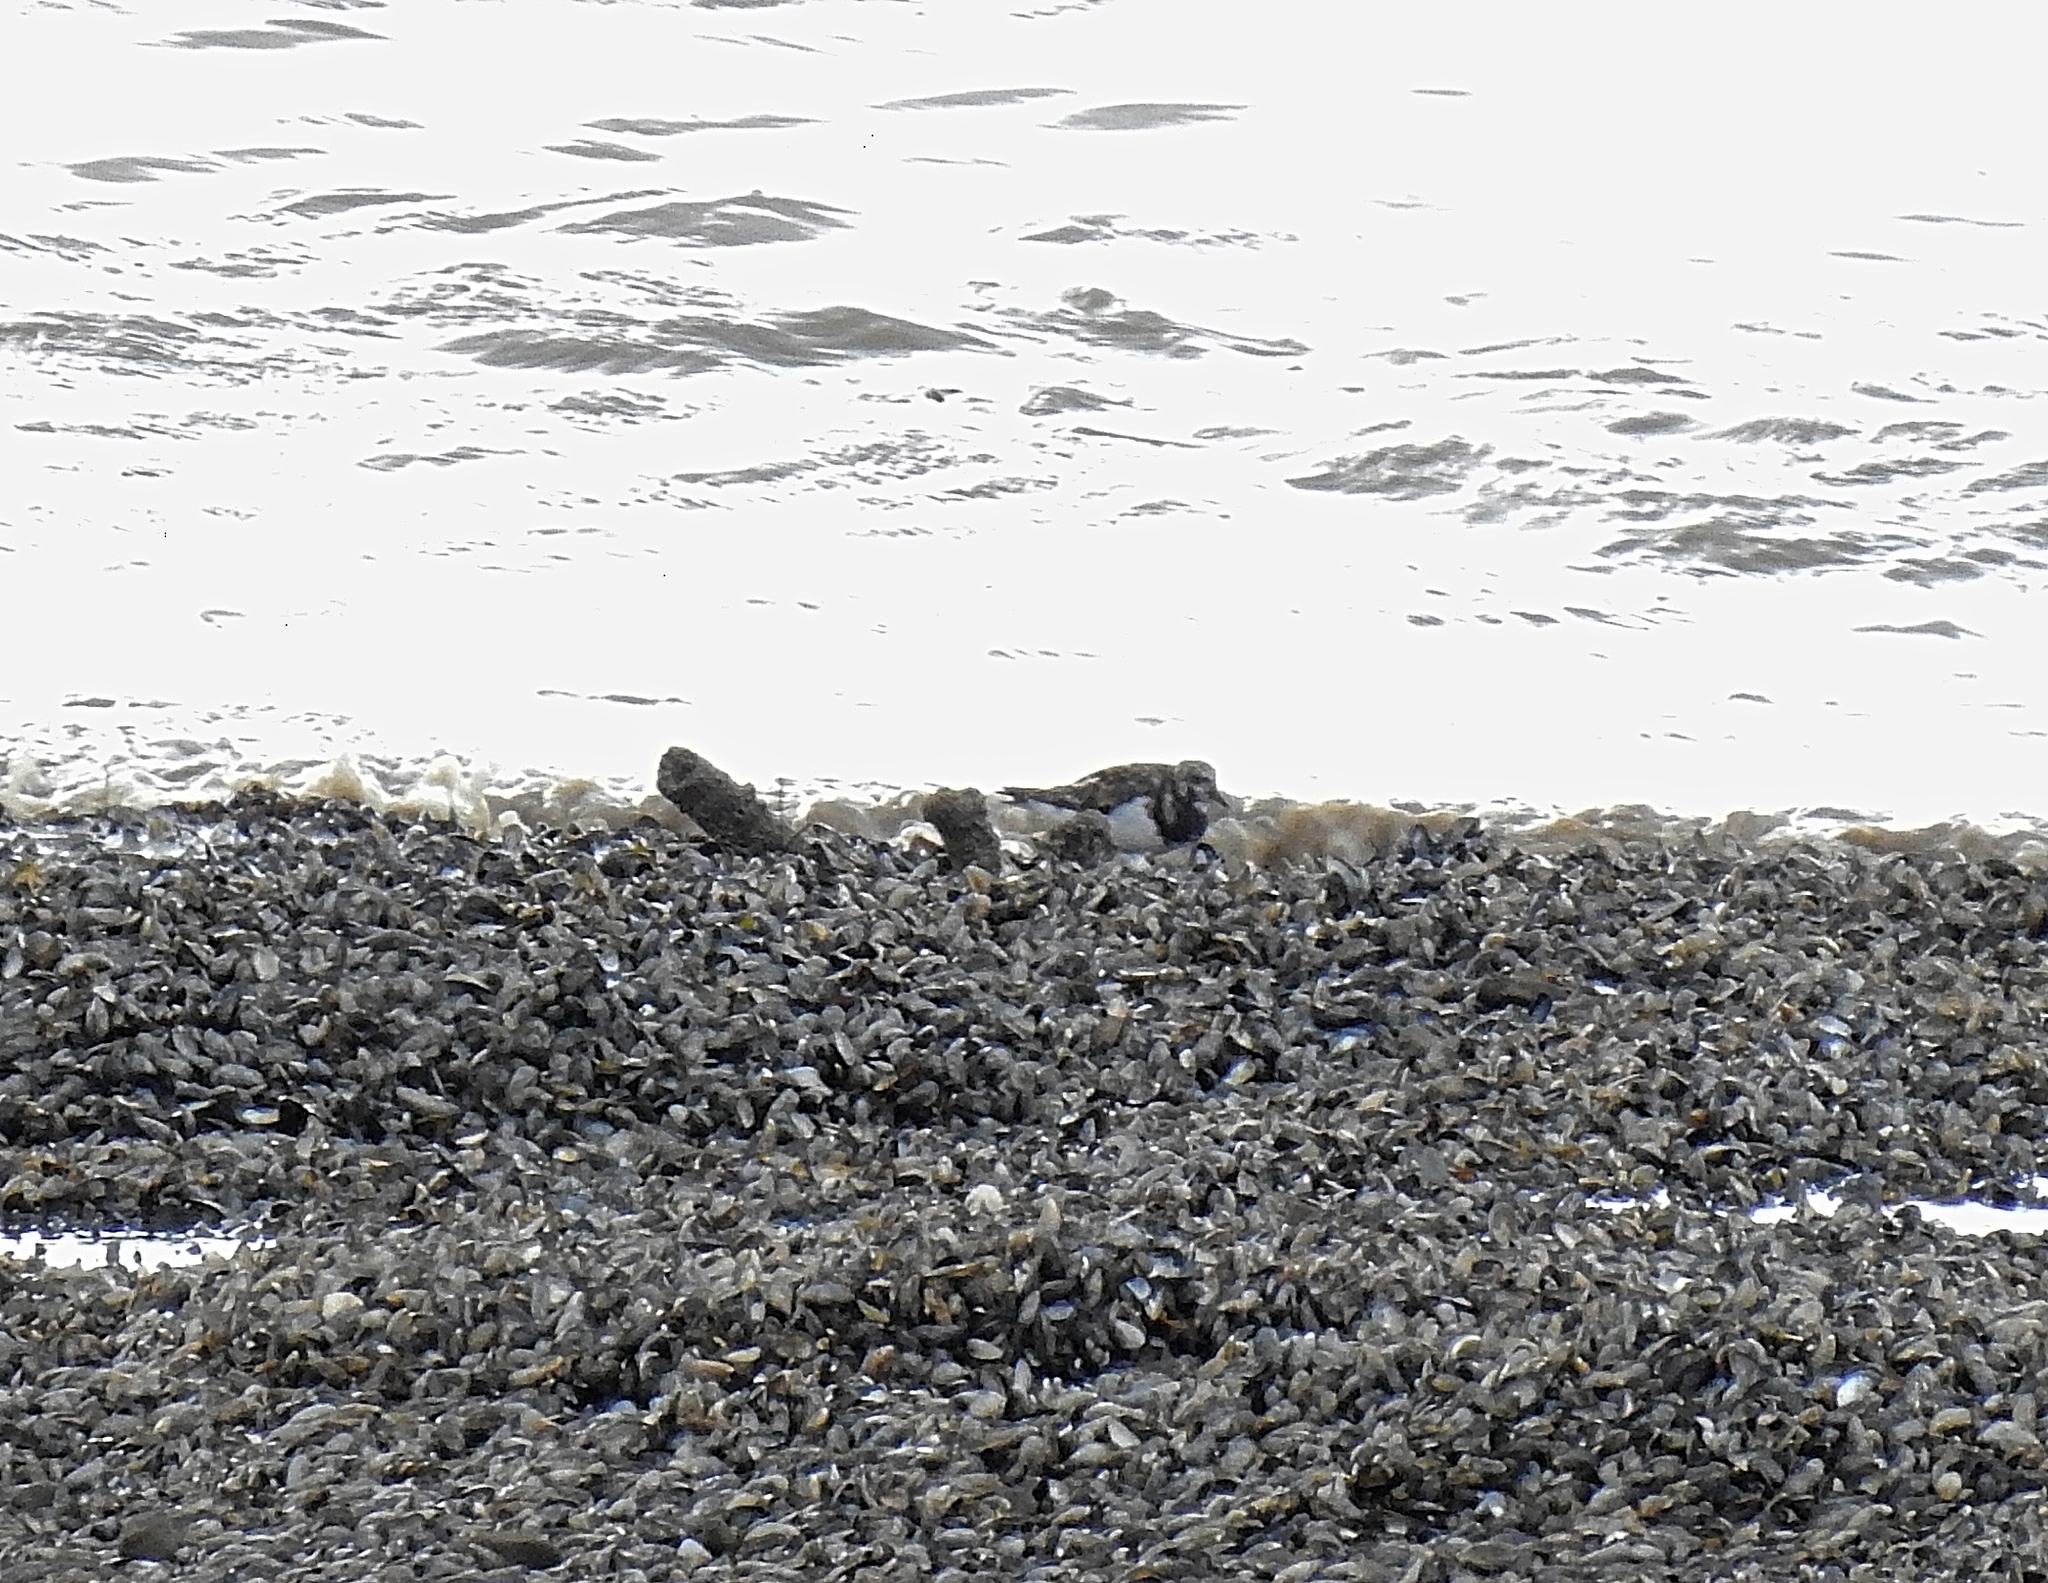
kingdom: Animalia
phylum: Chordata
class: Aves
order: Charadriiformes
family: Scolopacidae
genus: Arenaria
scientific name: Arenaria interpres
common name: Ruddy turnstone
